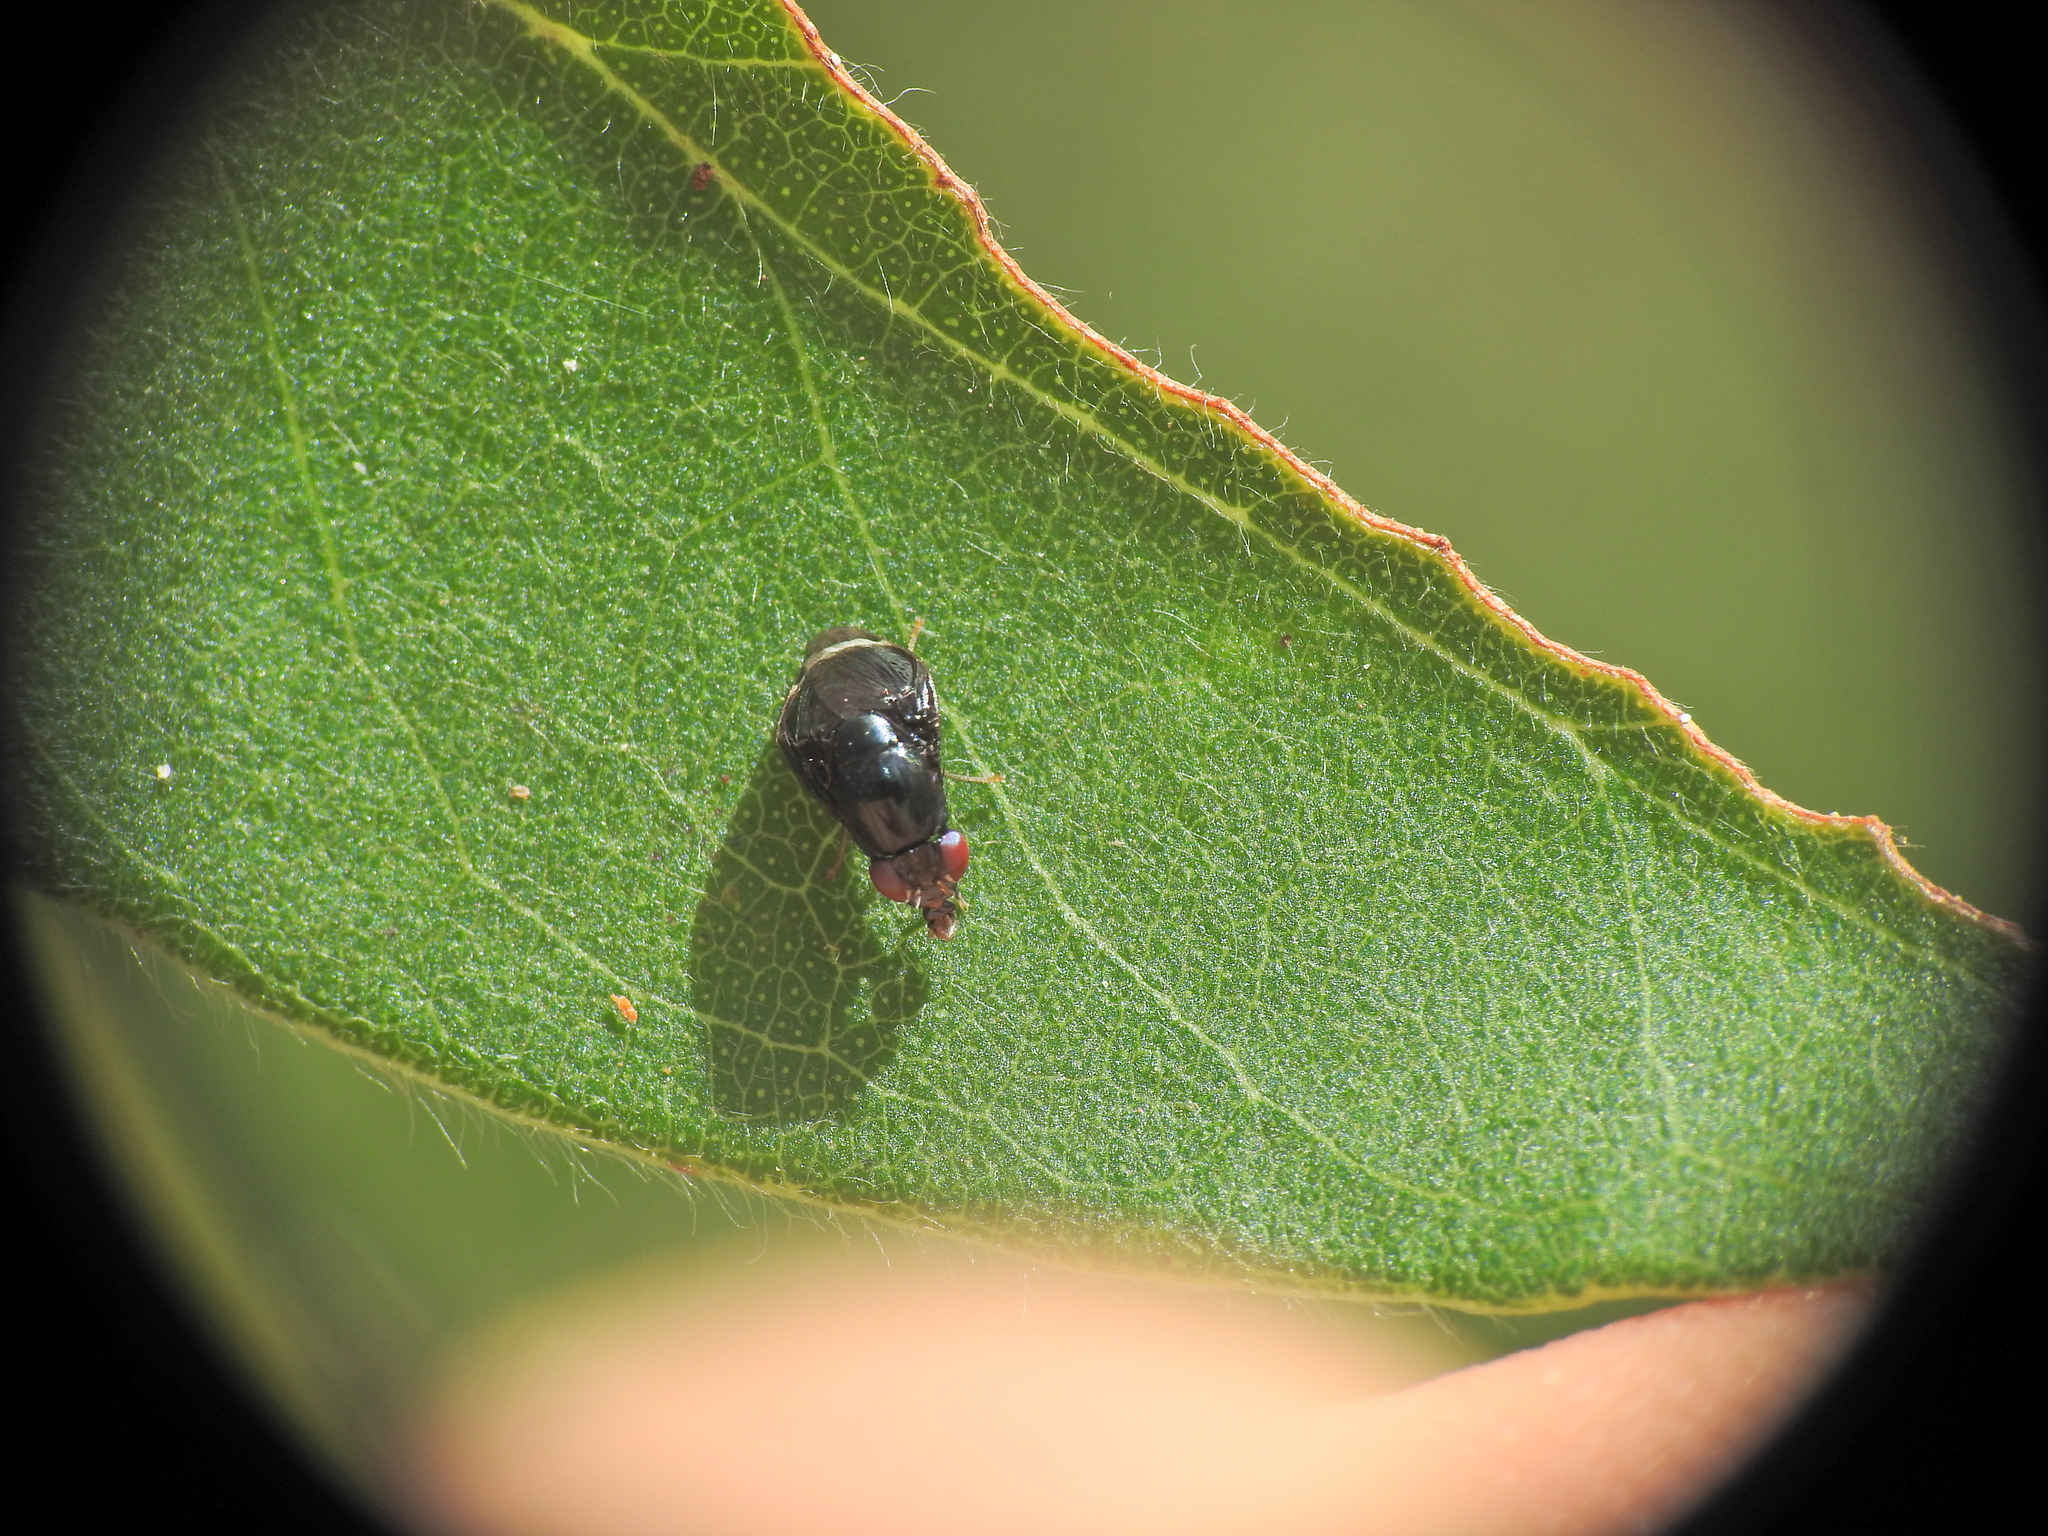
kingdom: Animalia
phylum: Arthropoda
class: Insecta
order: Diptera
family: Lauxaniidae
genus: Depressa
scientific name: Depressa albicosta
